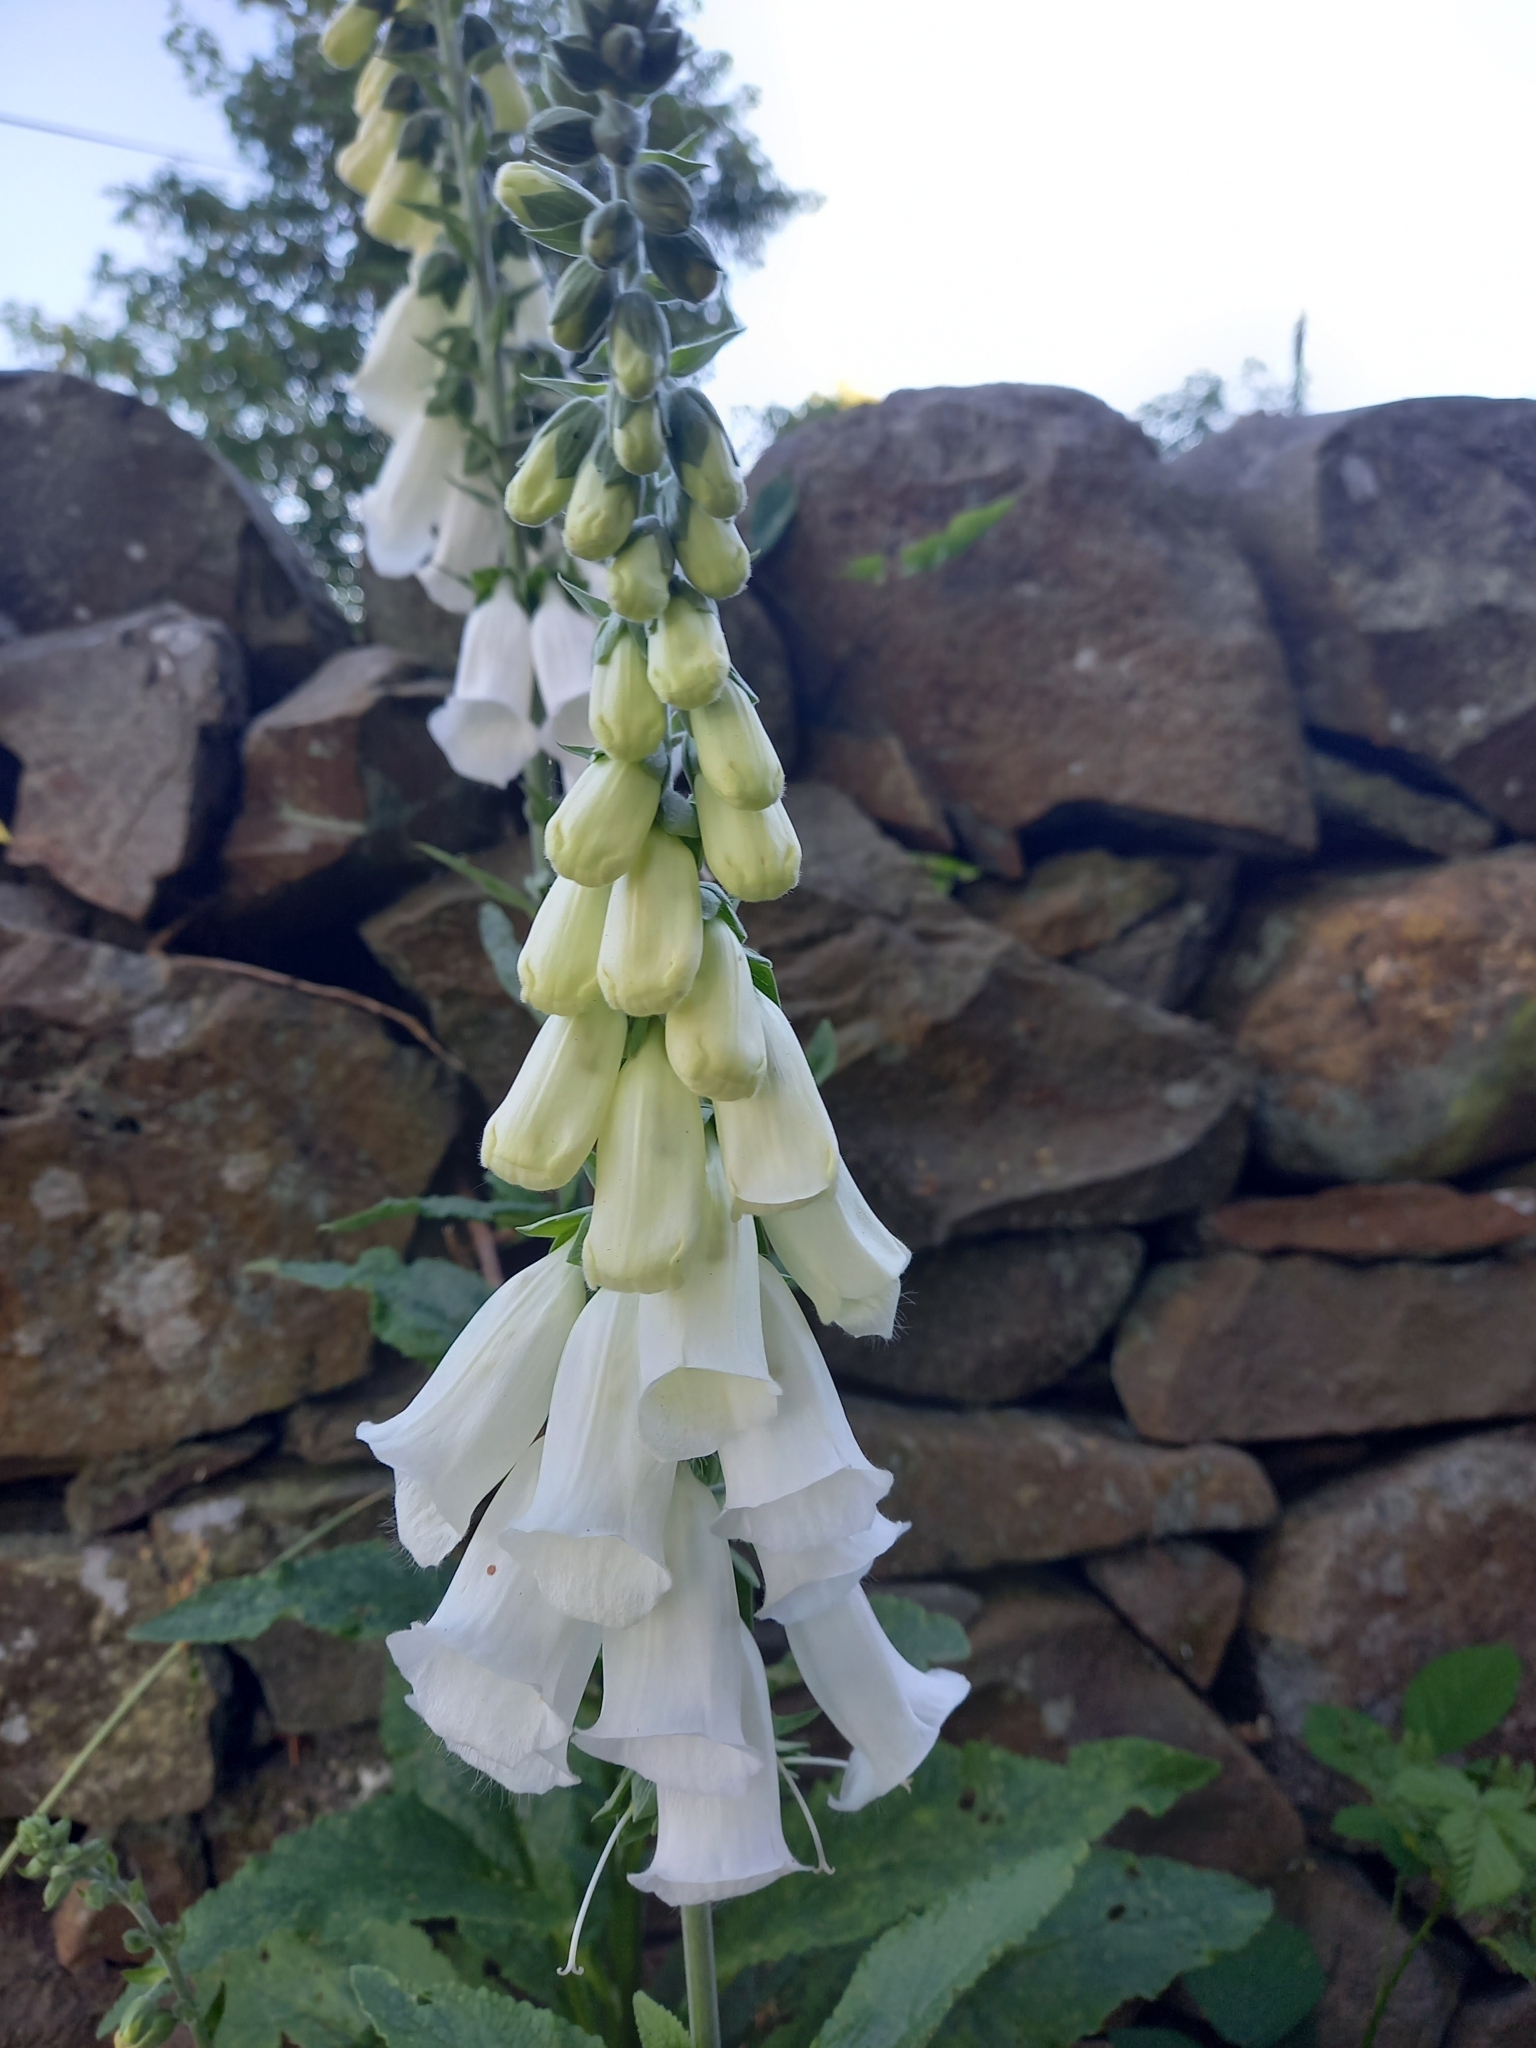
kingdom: Plantae
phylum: Tracheophyta
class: Magnoliopsida
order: Lamiales
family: Plantaginaceae
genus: Digitalis
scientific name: Digitalis purpurea
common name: Foxglove
